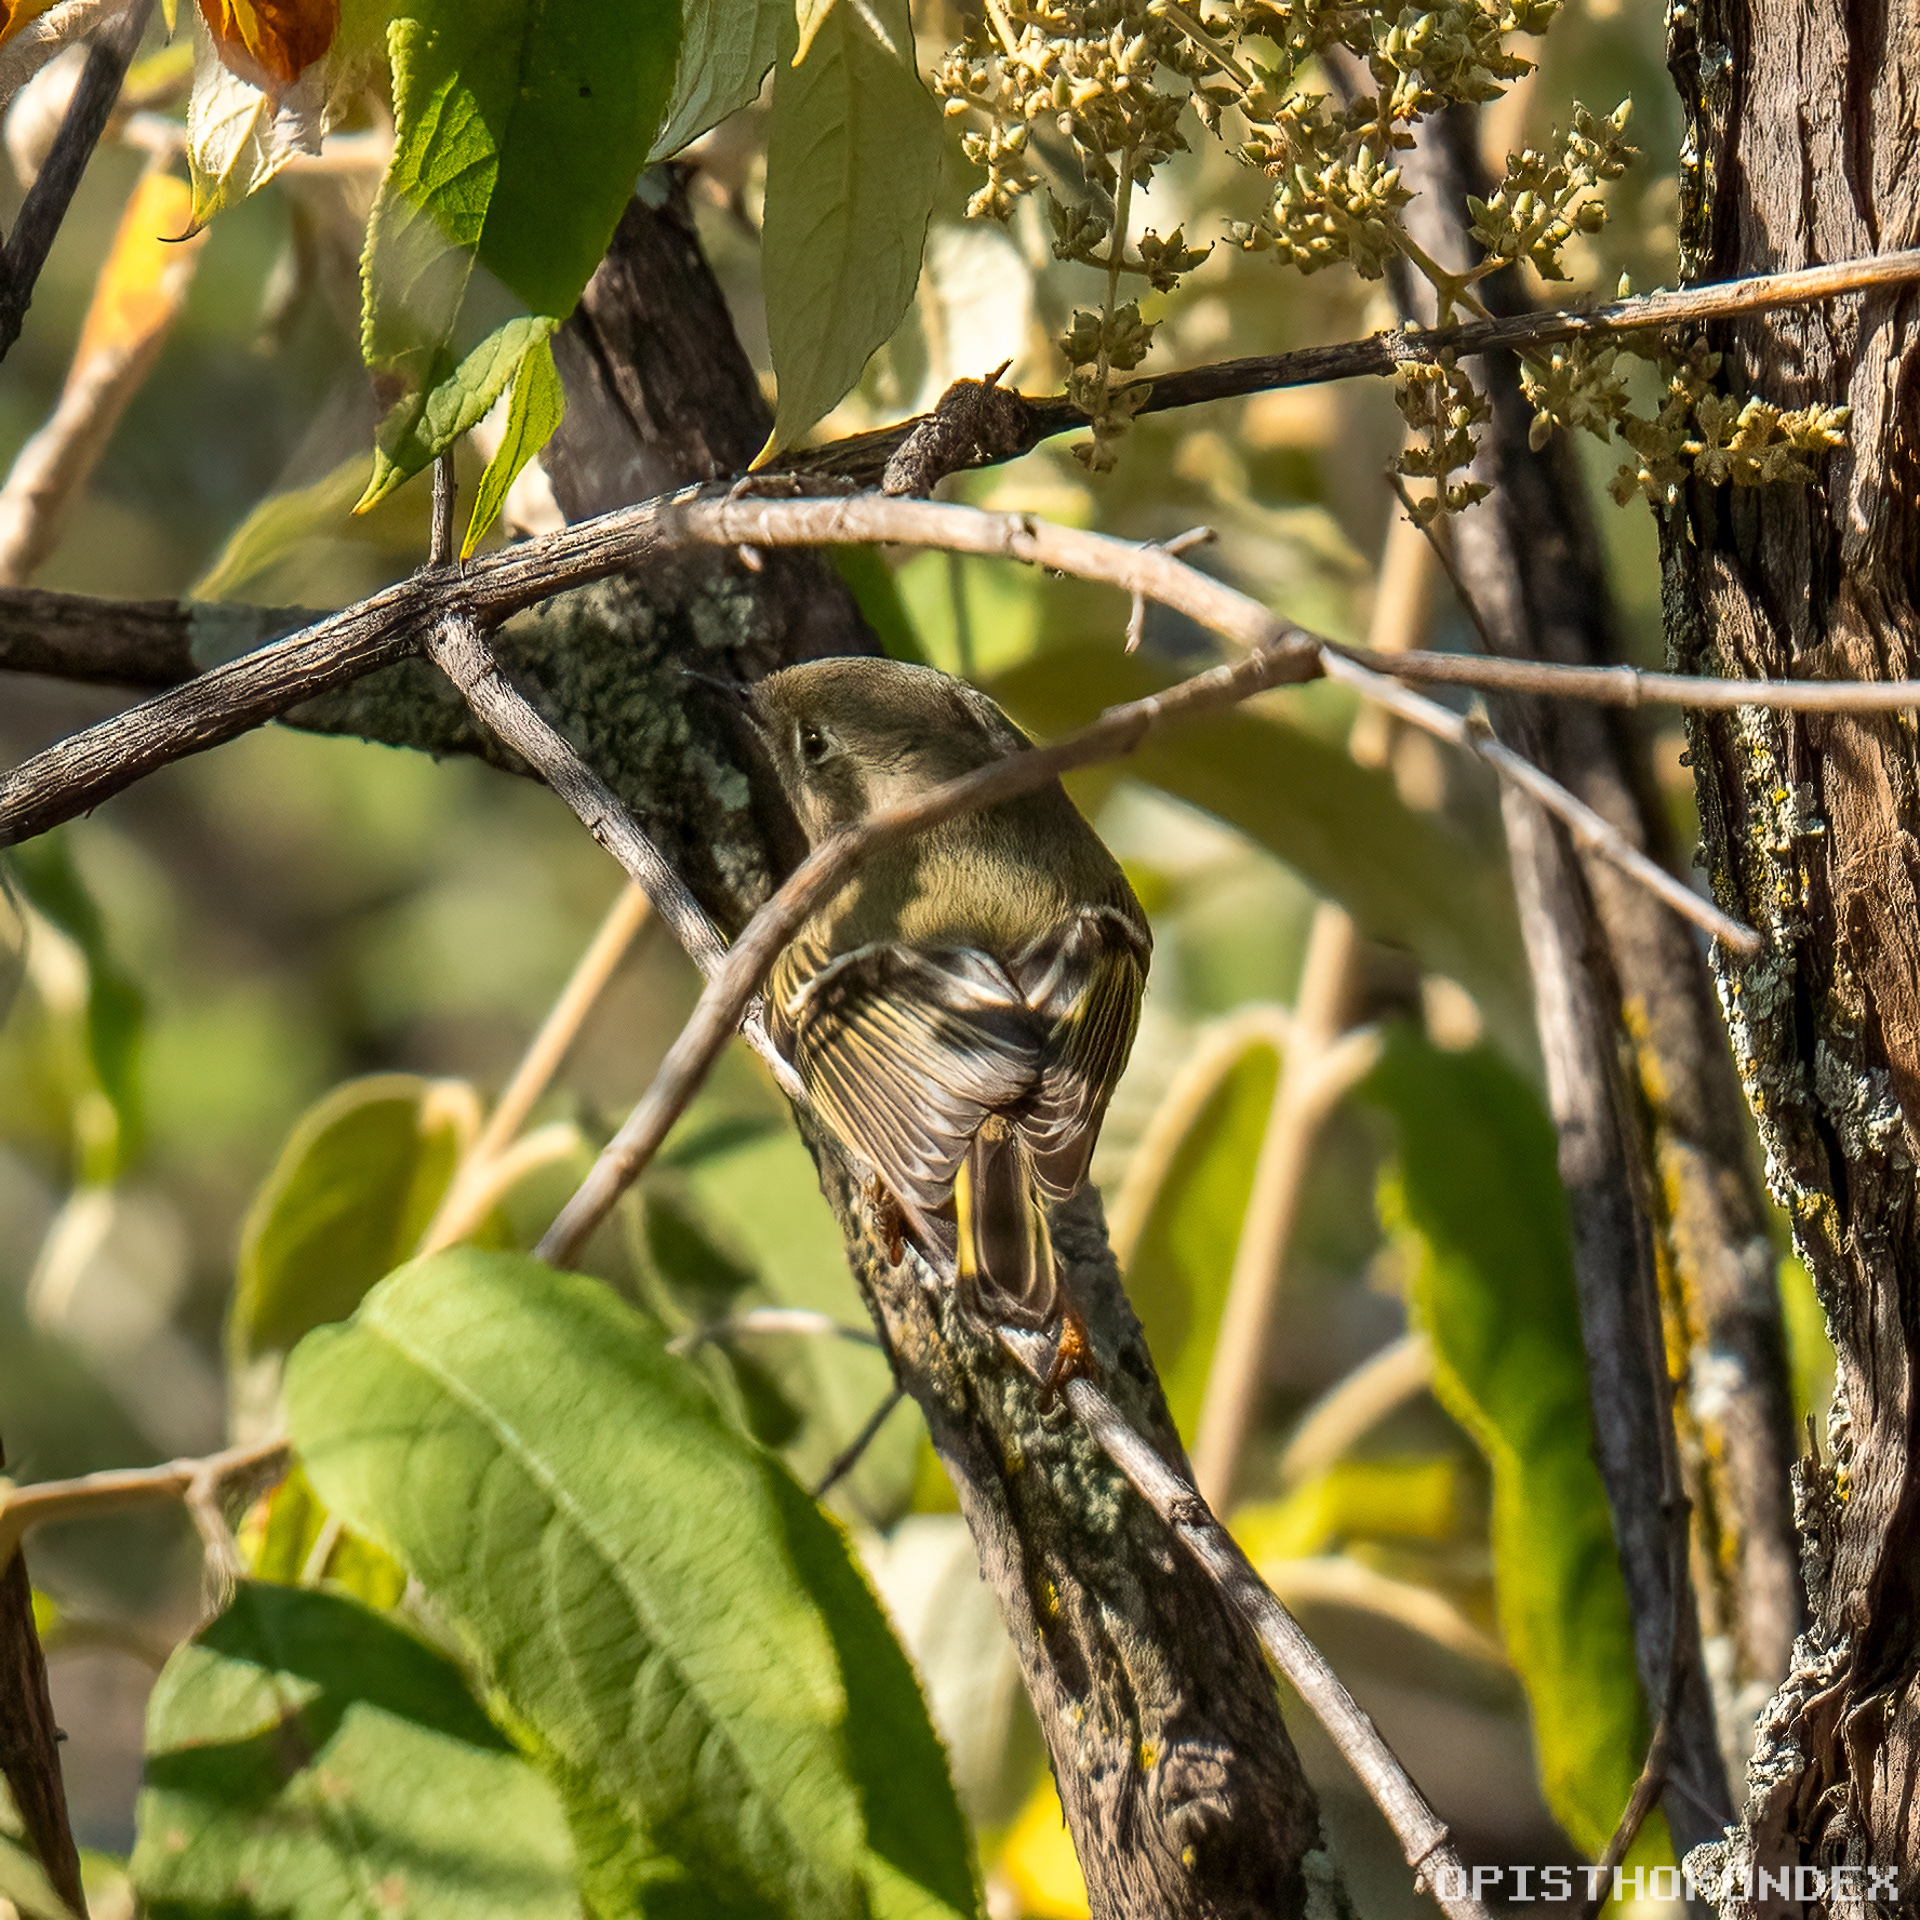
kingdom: Animalia
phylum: Chordata
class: Aves
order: Passeriformes
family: Regulidae
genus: Regulus
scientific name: Regulus calendula
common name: Ruby-crowned kinglet
